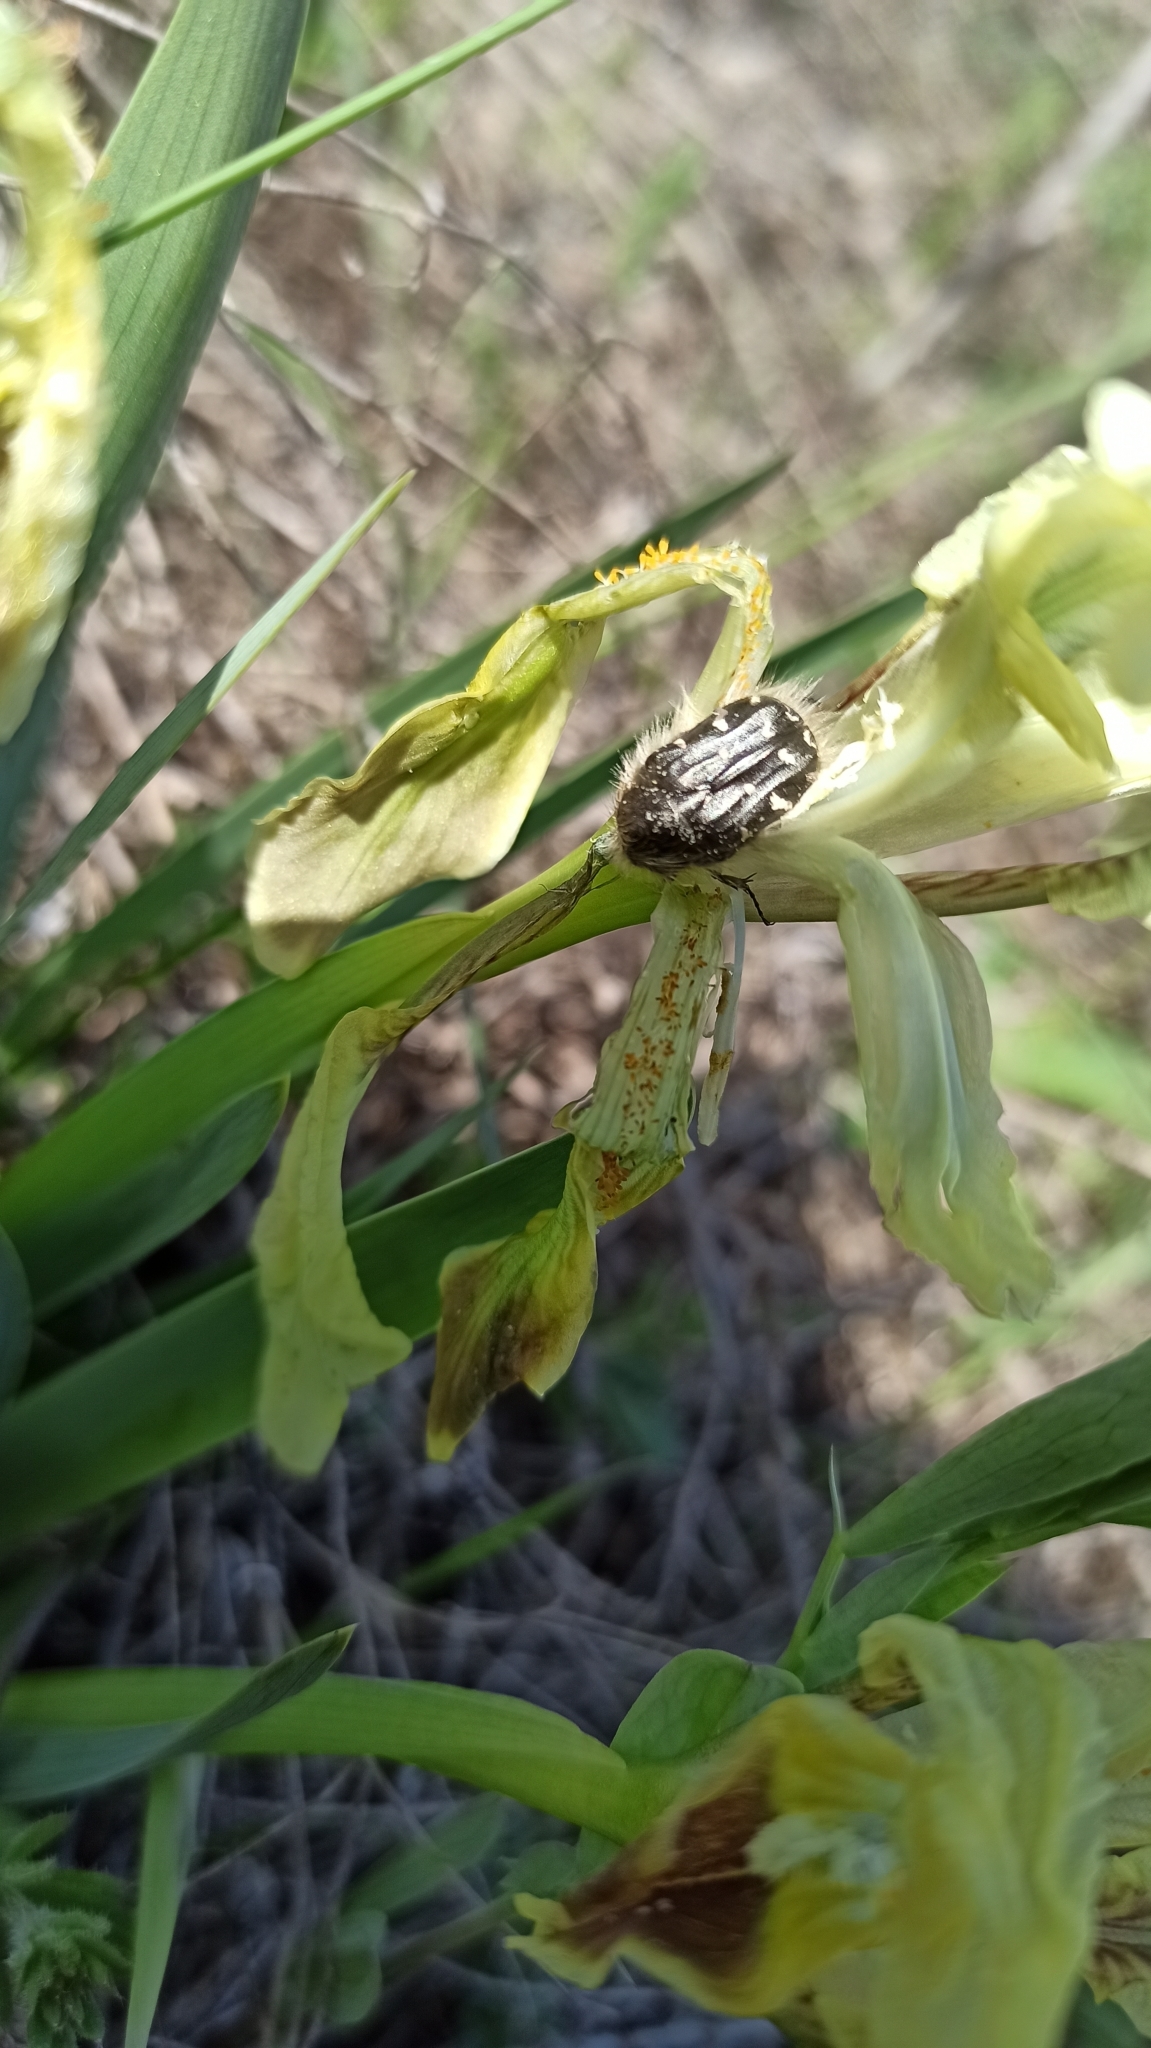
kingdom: Animalia
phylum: Arthropoda
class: Insecta
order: Coleoptera
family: Scarabaeidae
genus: Tropinota
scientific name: Tropinota hirta
